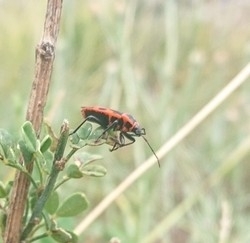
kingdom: Animalia
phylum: Arthropoda
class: Insecta
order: Hemiptera
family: Pyrrhocoridae
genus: Pyrrhocoris
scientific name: Pyrrhocoris apterus
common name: Firebug
